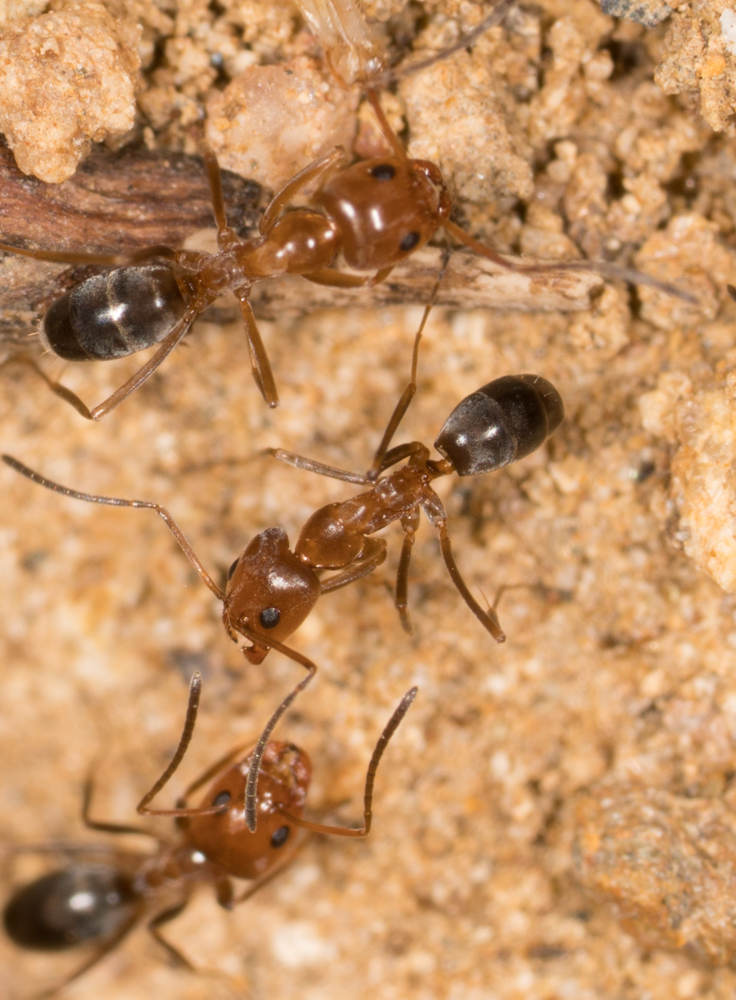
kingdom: Animalia
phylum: Arthropoda
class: Insecta
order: Hymenoptera
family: Formicidae
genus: Dorymyrmex
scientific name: Dorymyrmex bicolor
